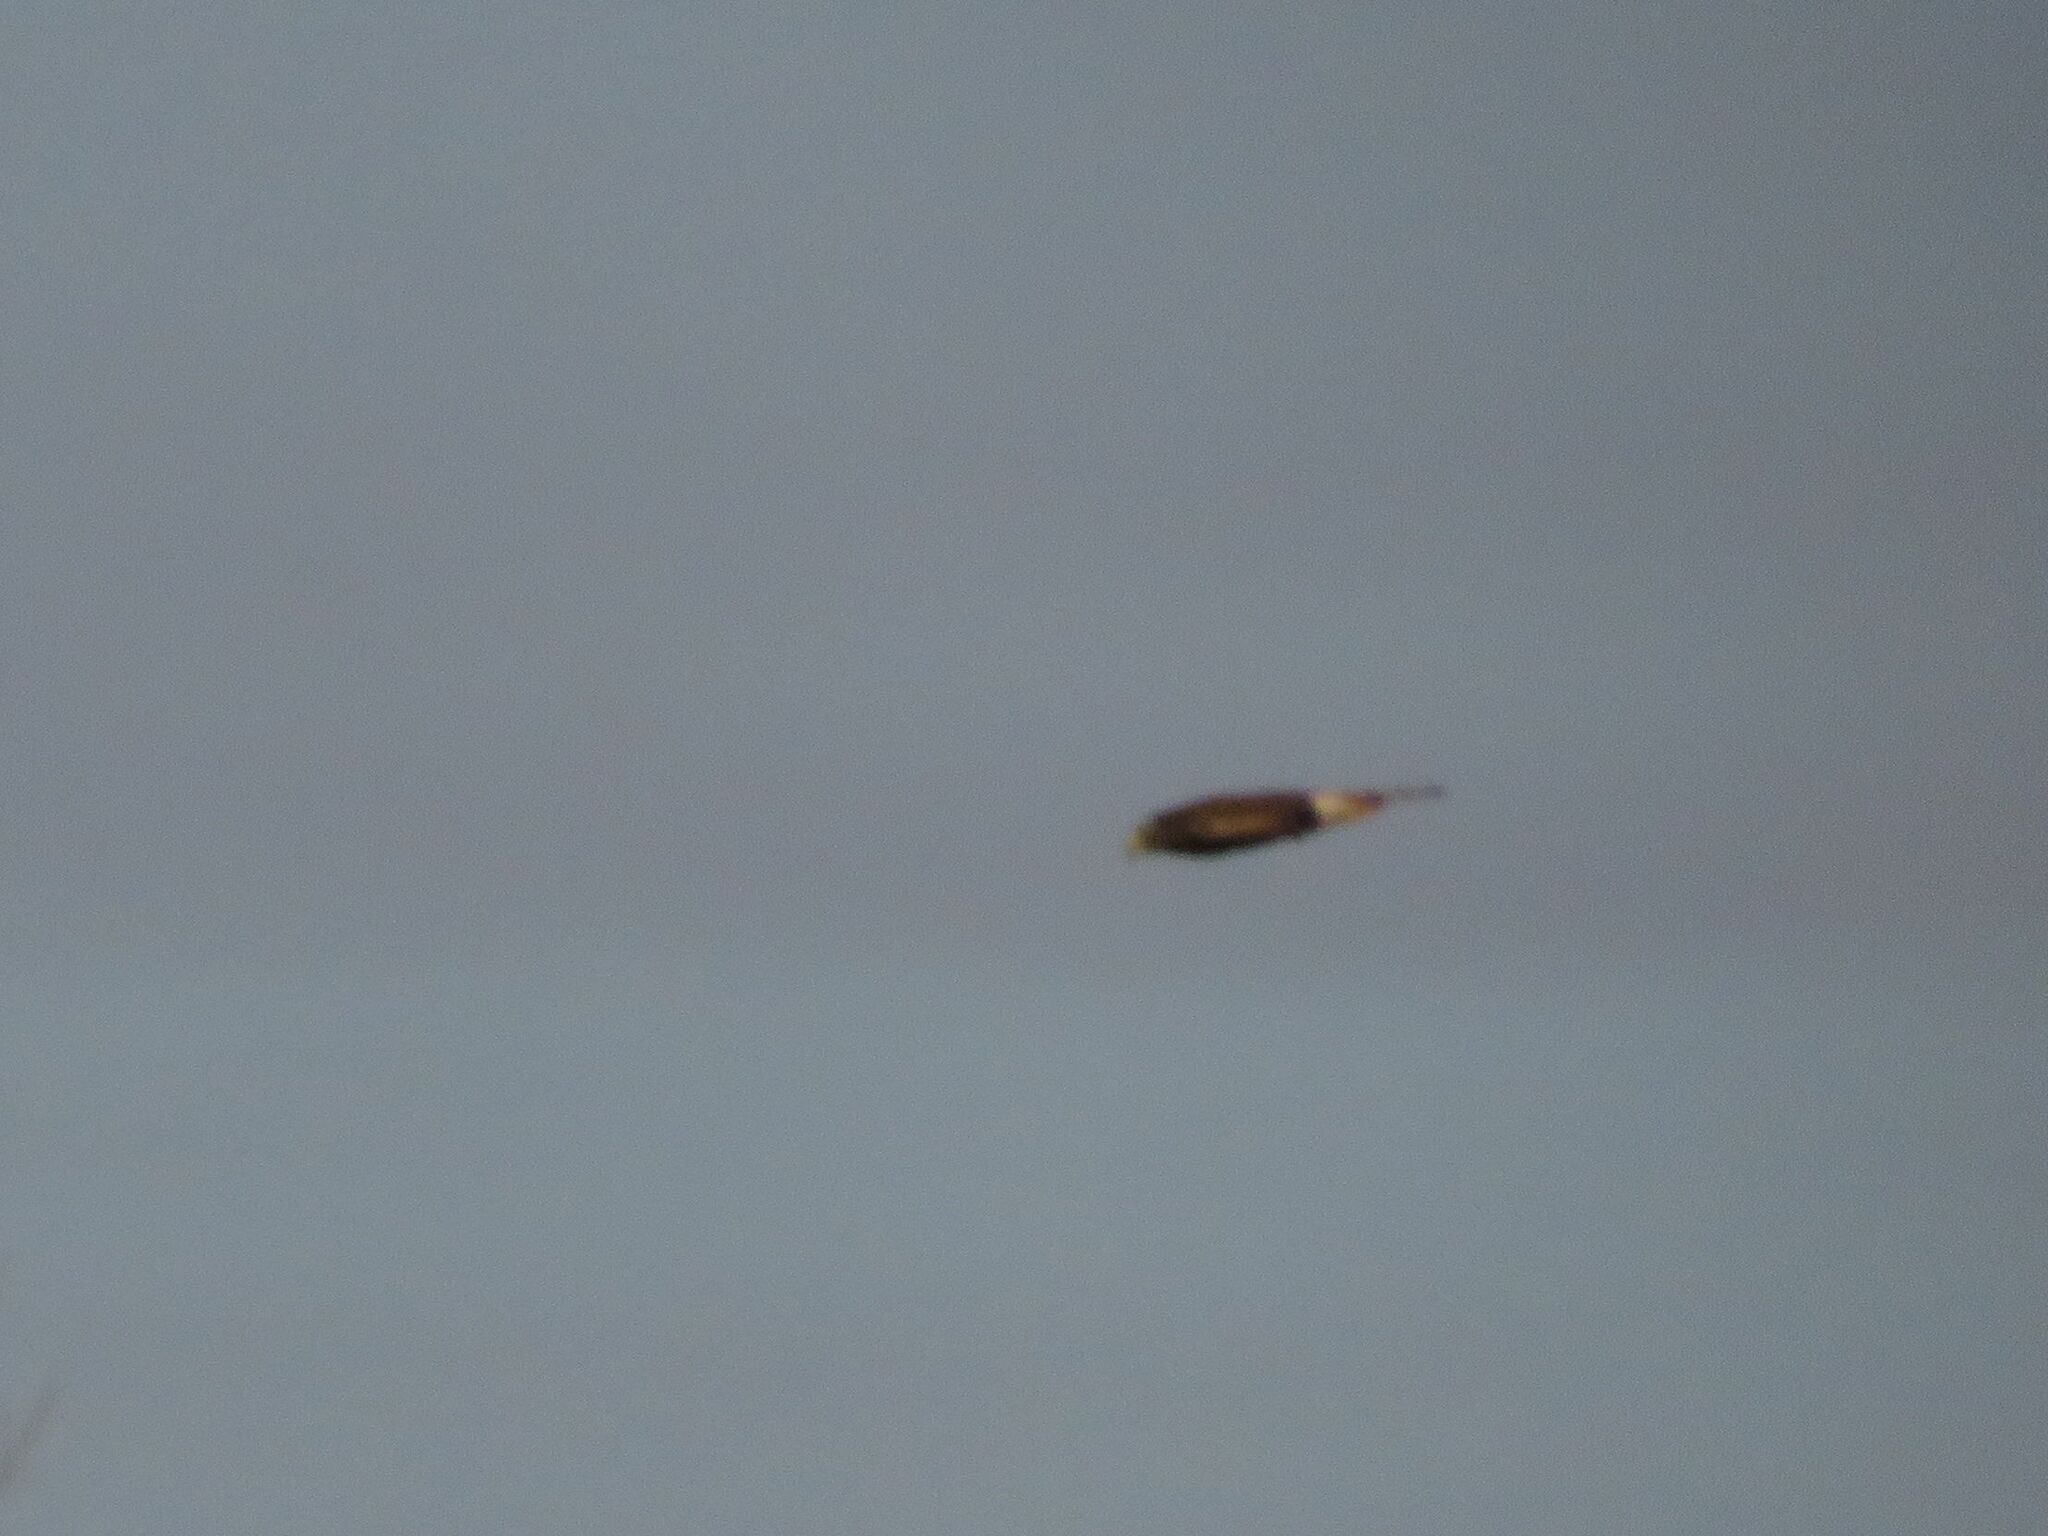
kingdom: Animalia
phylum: Chordata
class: Aves
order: Accipitriformes
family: Accipitridae
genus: Rupornis
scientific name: Rupornis magnirostris
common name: Roadside hawk
